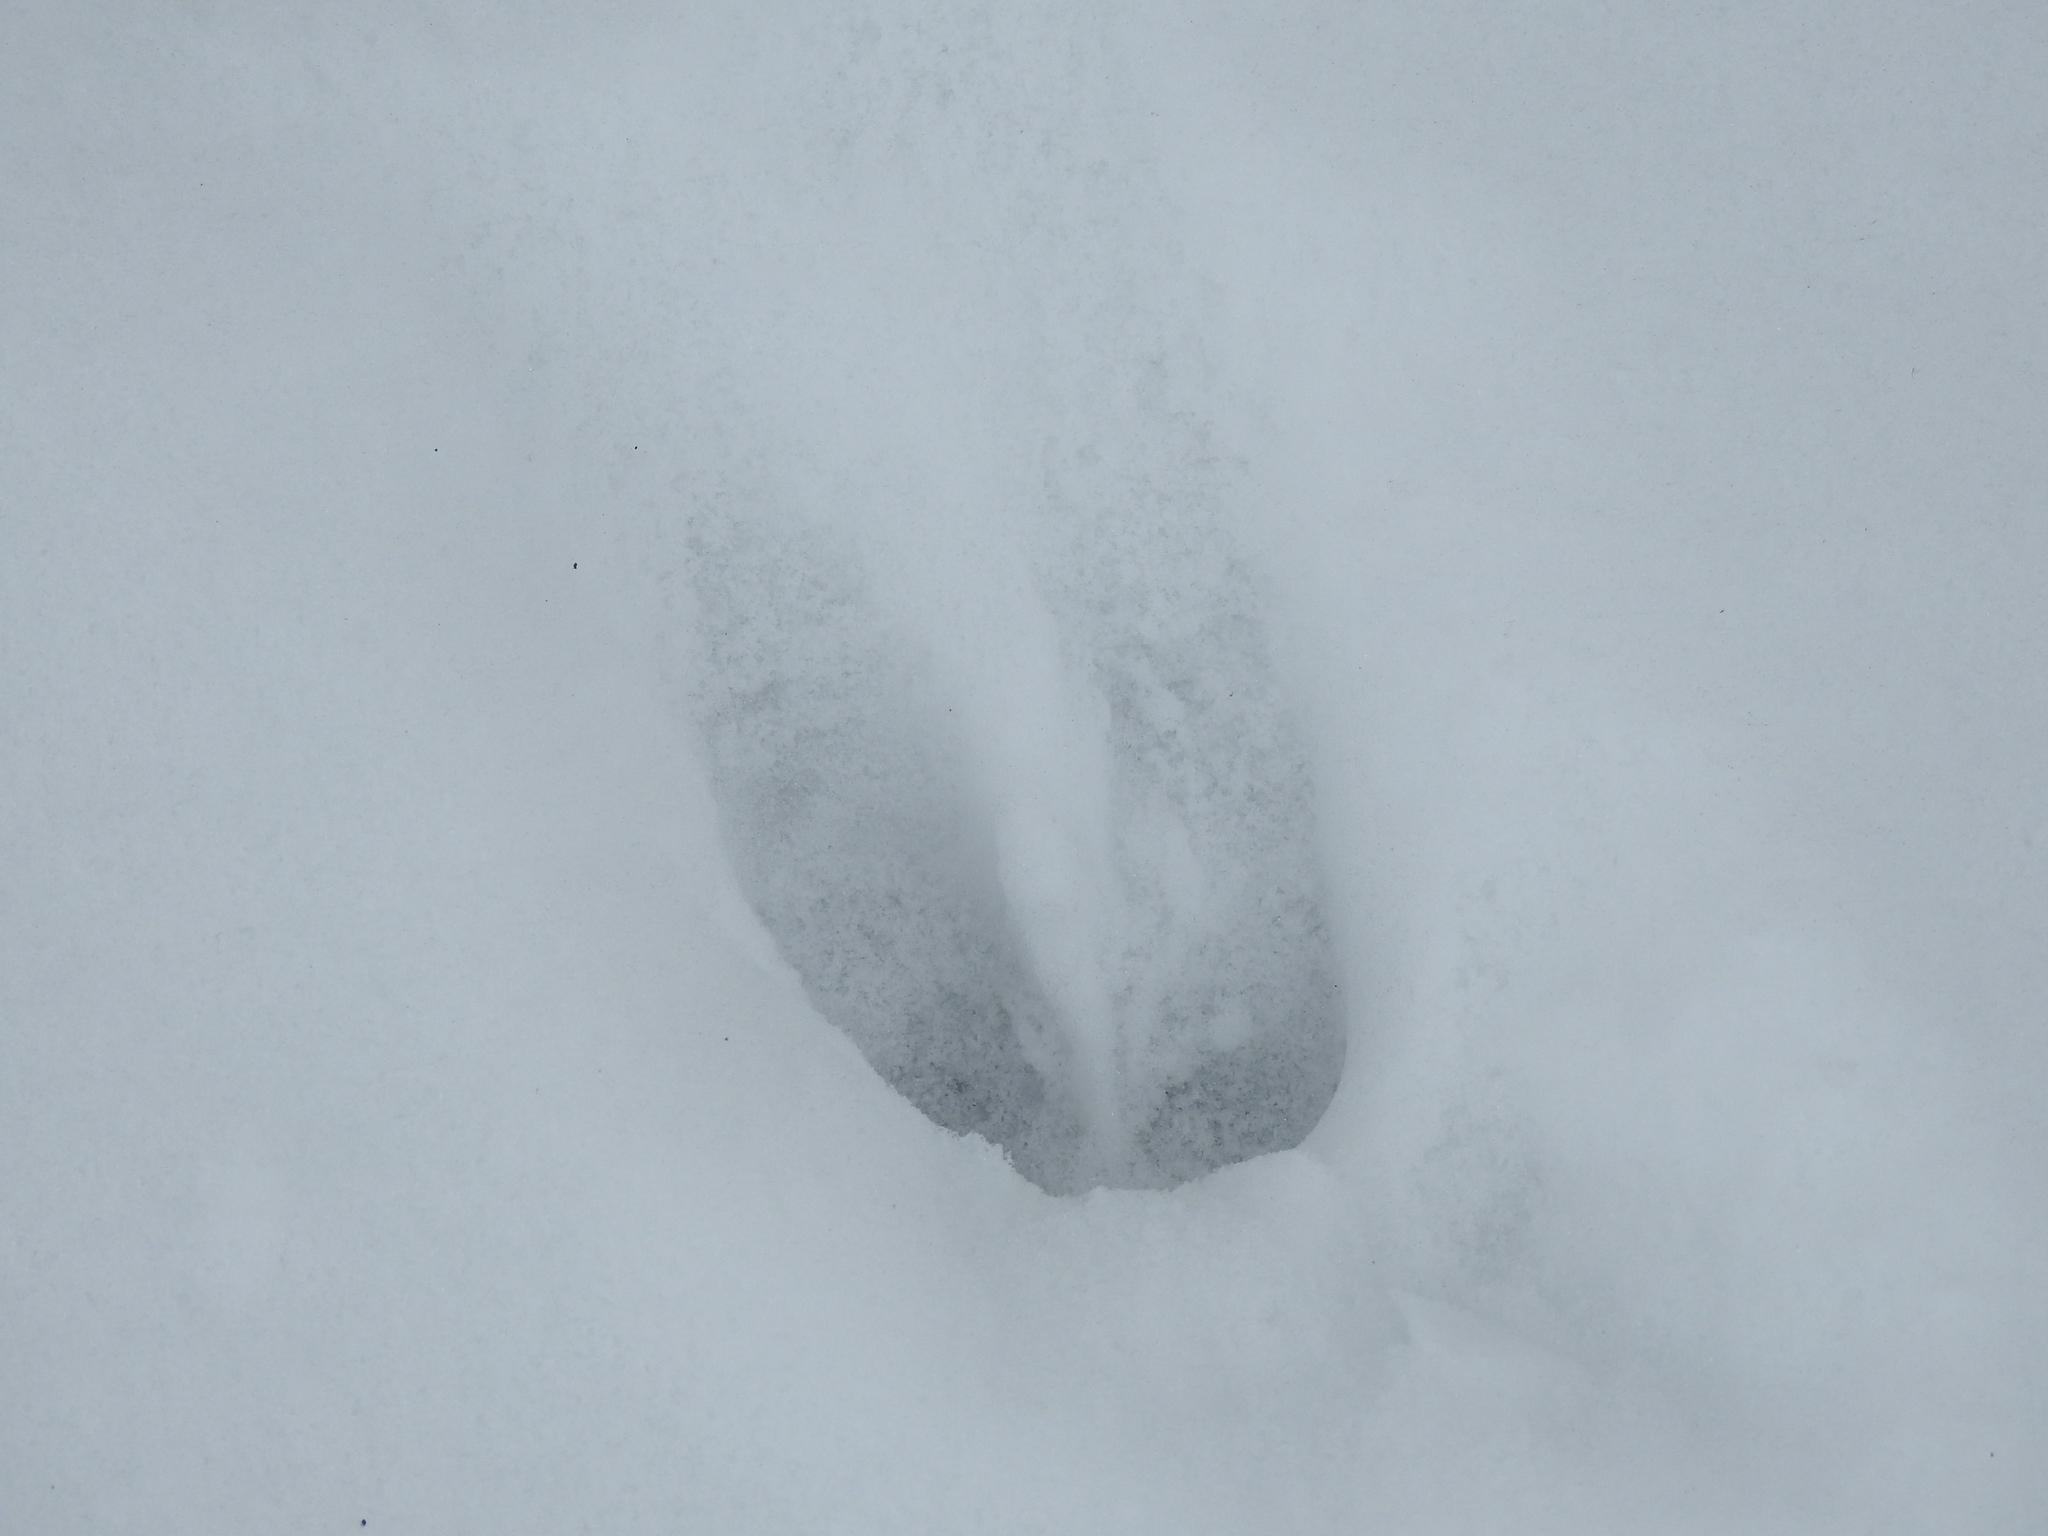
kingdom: Animalia
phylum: Chordata
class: Mammalia
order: Artiodactyla
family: Cervidae
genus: Odocoileus
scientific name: Odocoileus virginianus
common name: White-tailed deer
